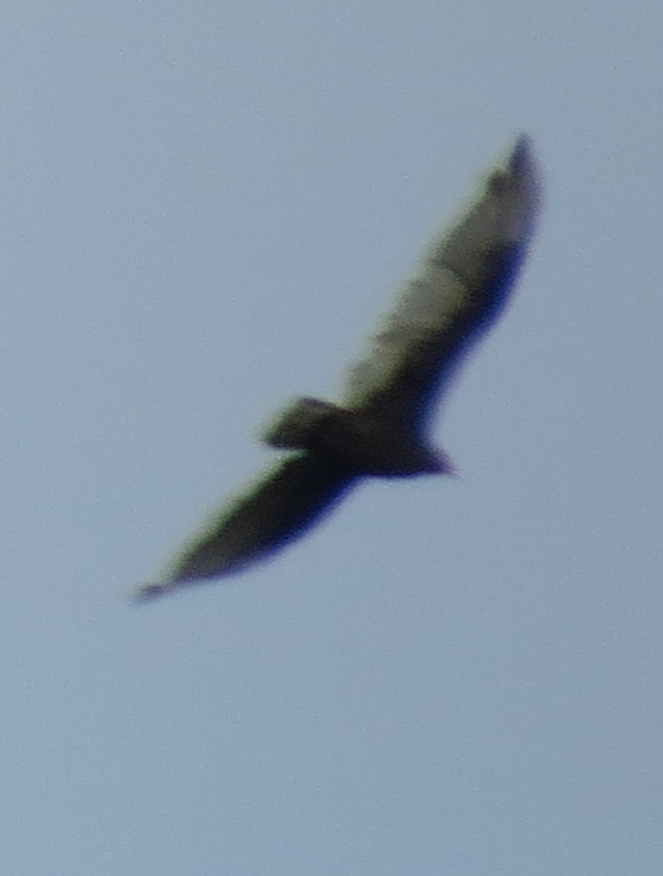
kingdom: Animalia
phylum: Chordata
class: Aves
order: Accipitriformes
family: Cathartidae
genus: Cathartes
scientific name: Cathartes aura
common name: Turkey vulture
